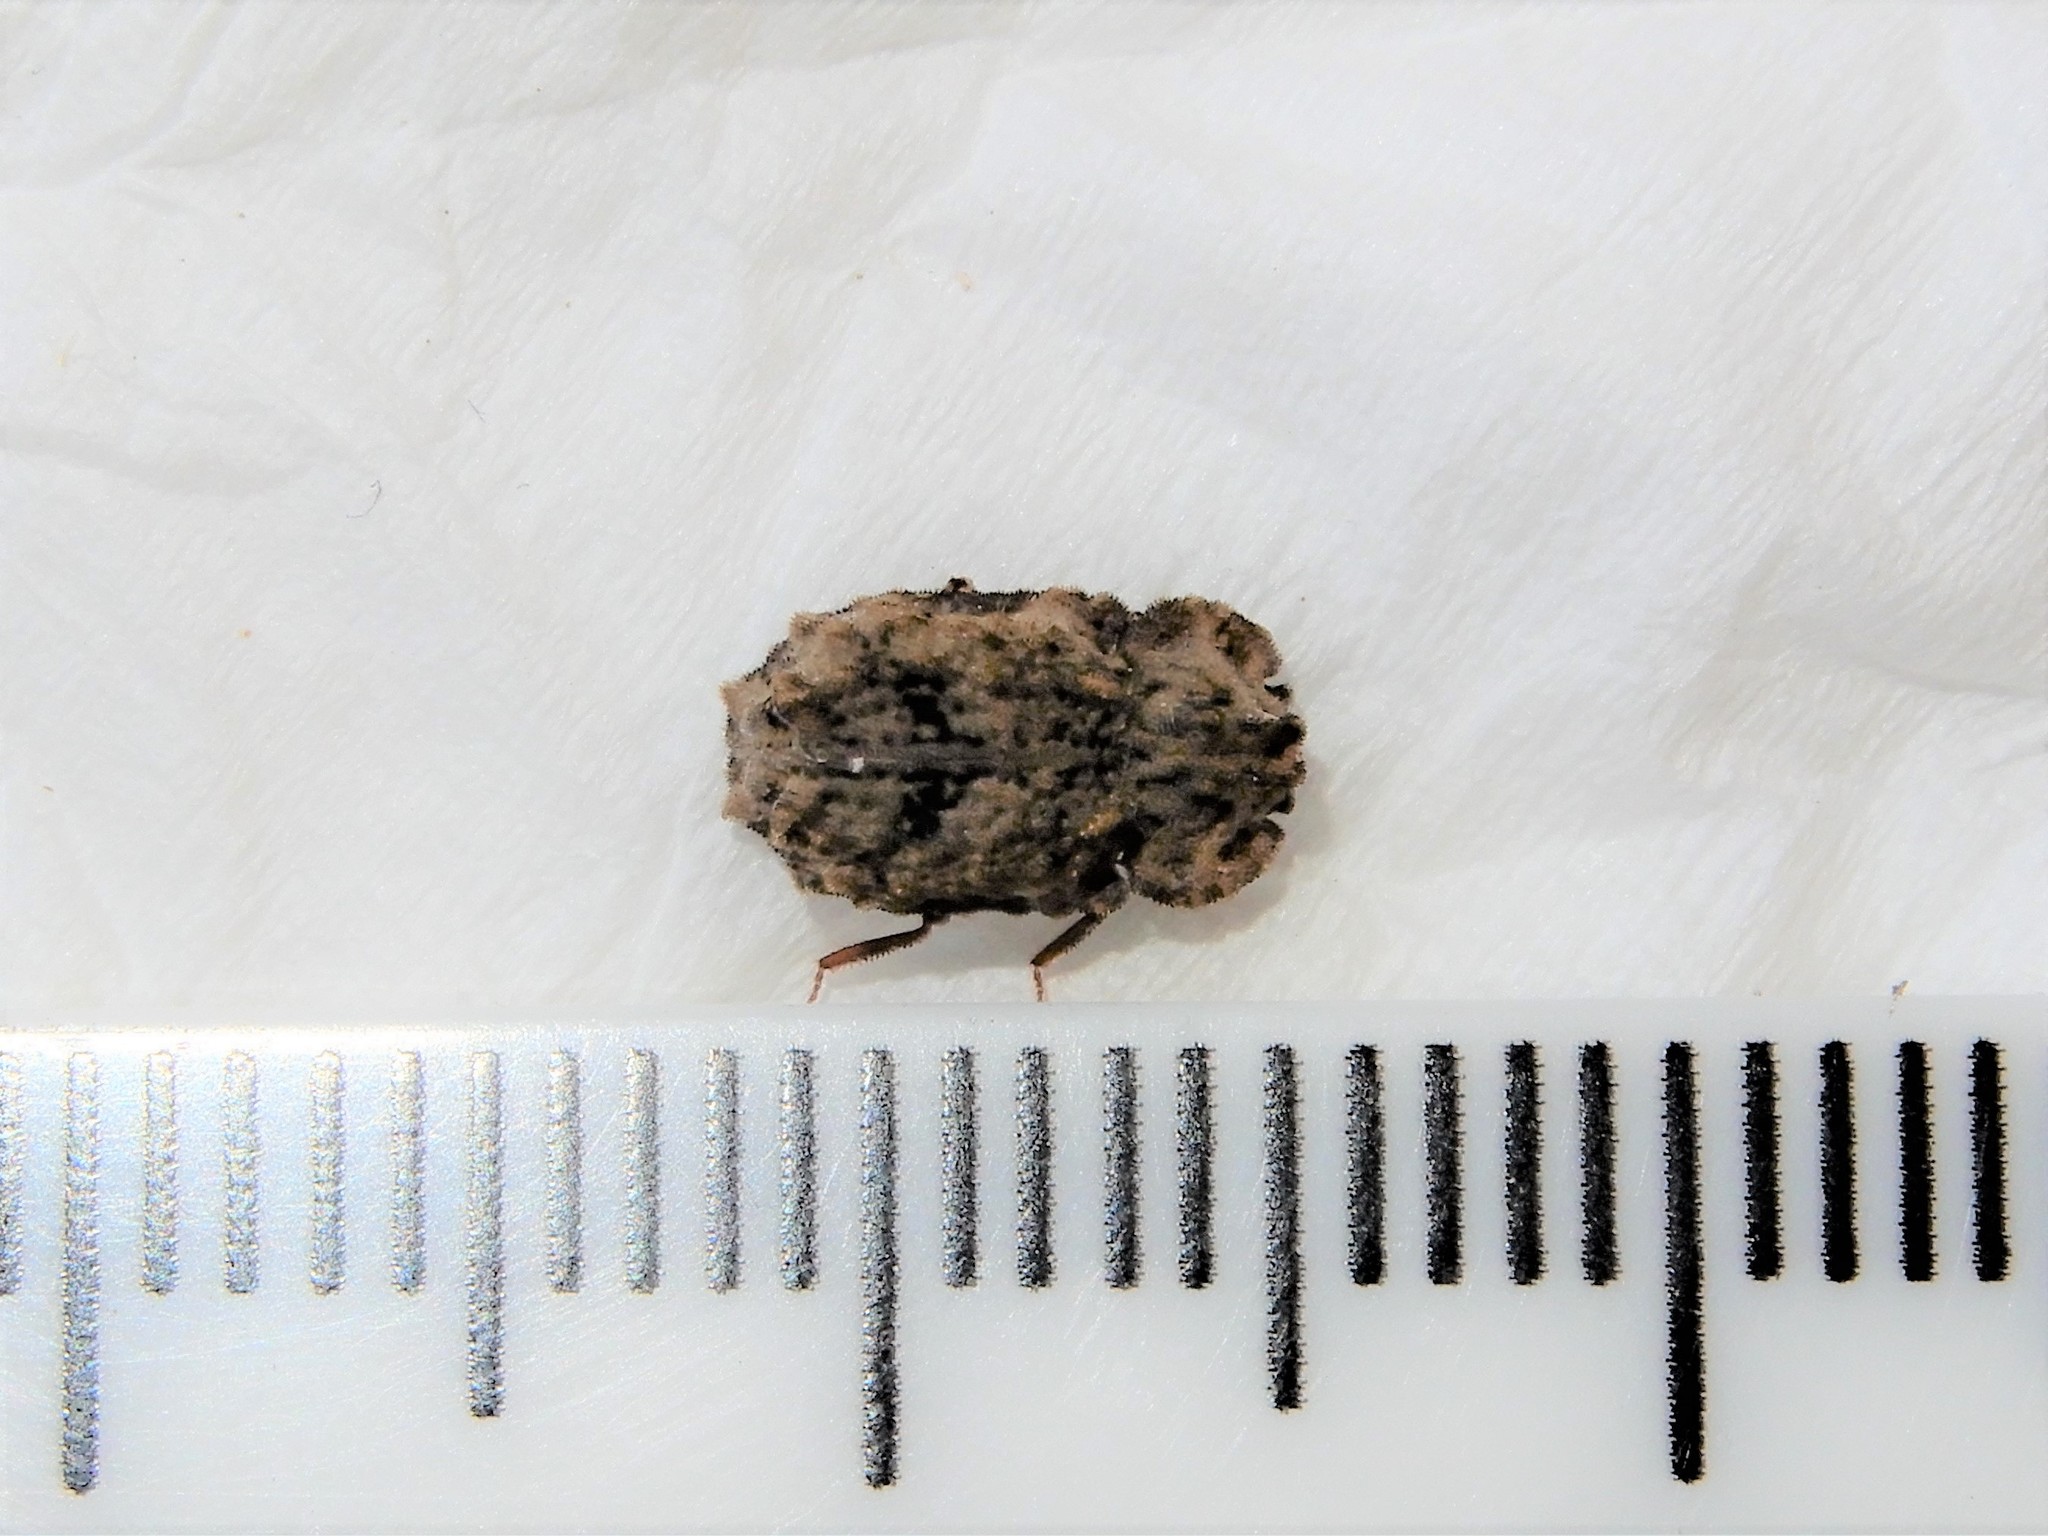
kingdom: Animalia
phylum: Arthropoda
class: Insecta
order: Coleoptera
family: Zopheridae
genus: Pristoderus
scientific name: Pristoderus
